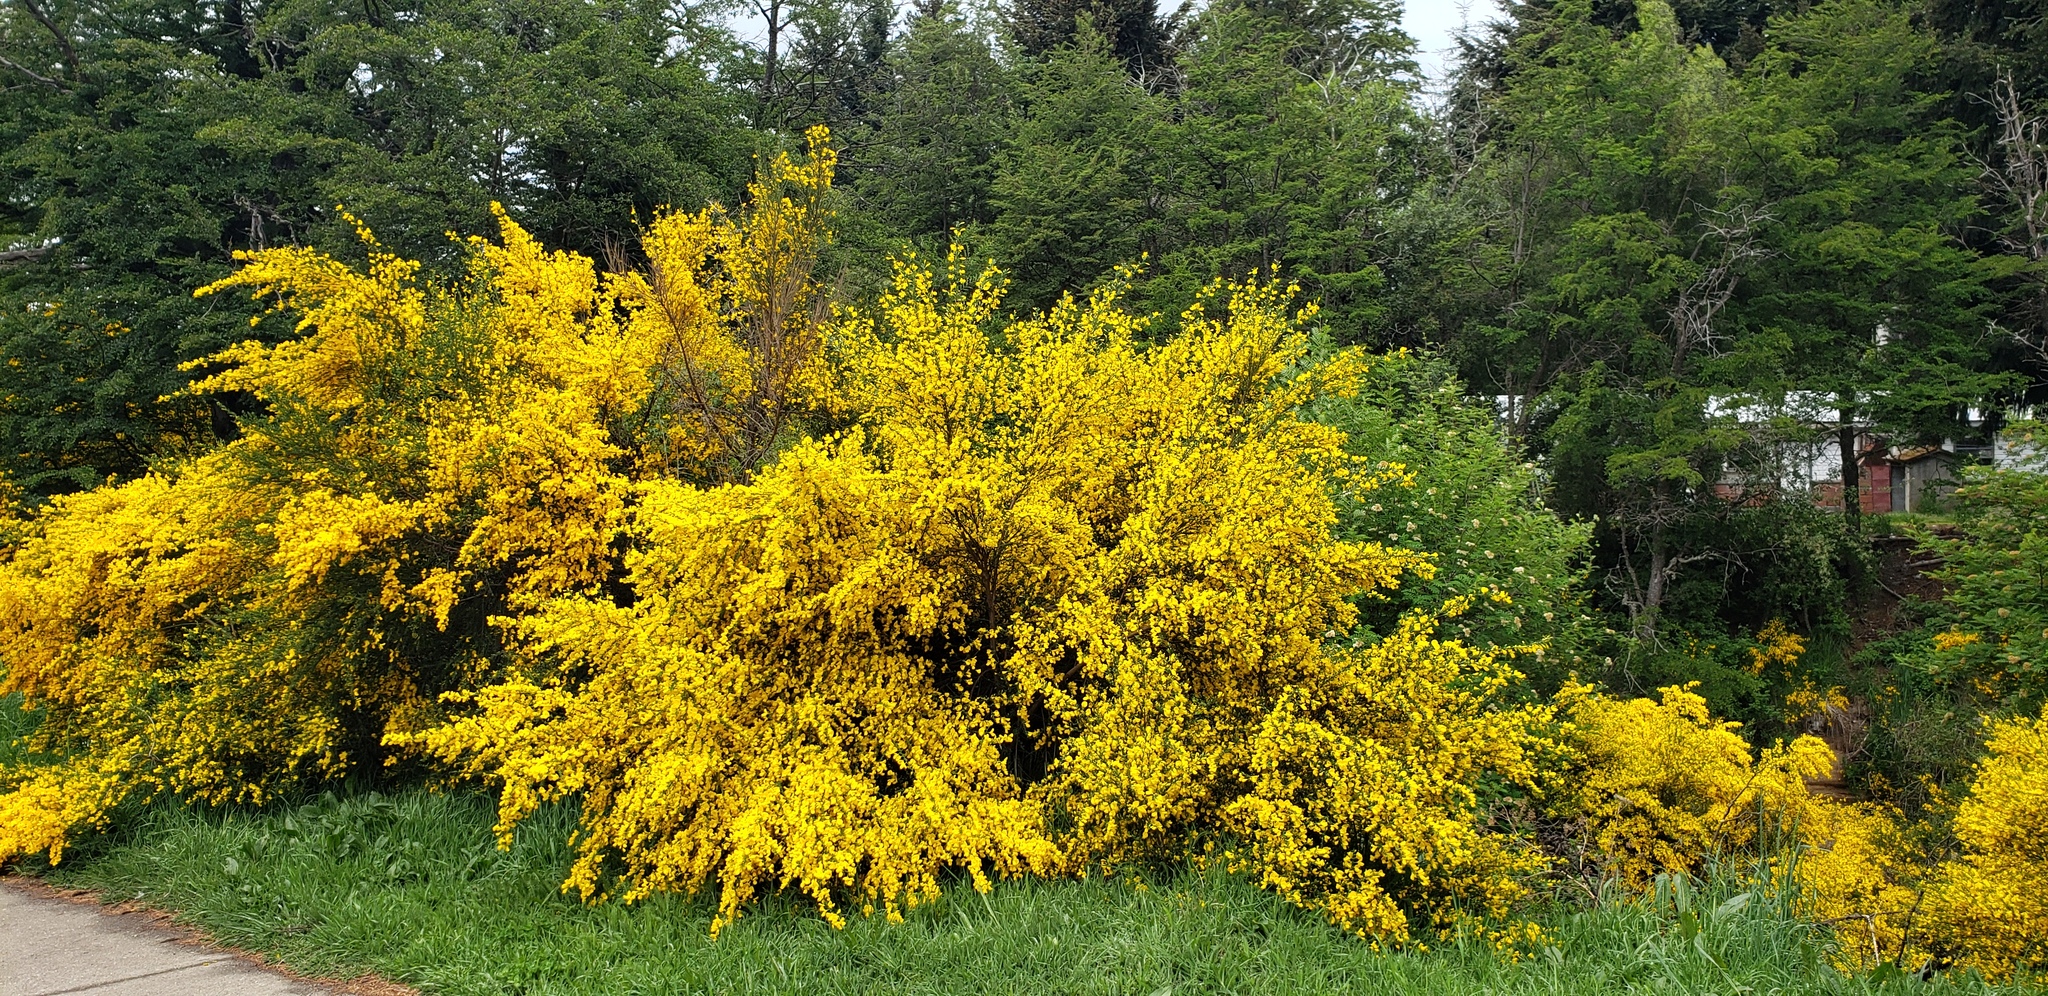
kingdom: Plantae
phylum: Tracheophyta
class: Magnoliopsida
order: Fabales
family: Fabaceae
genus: Cytisus
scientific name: Cytisus scoparius
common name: Scotch broom
